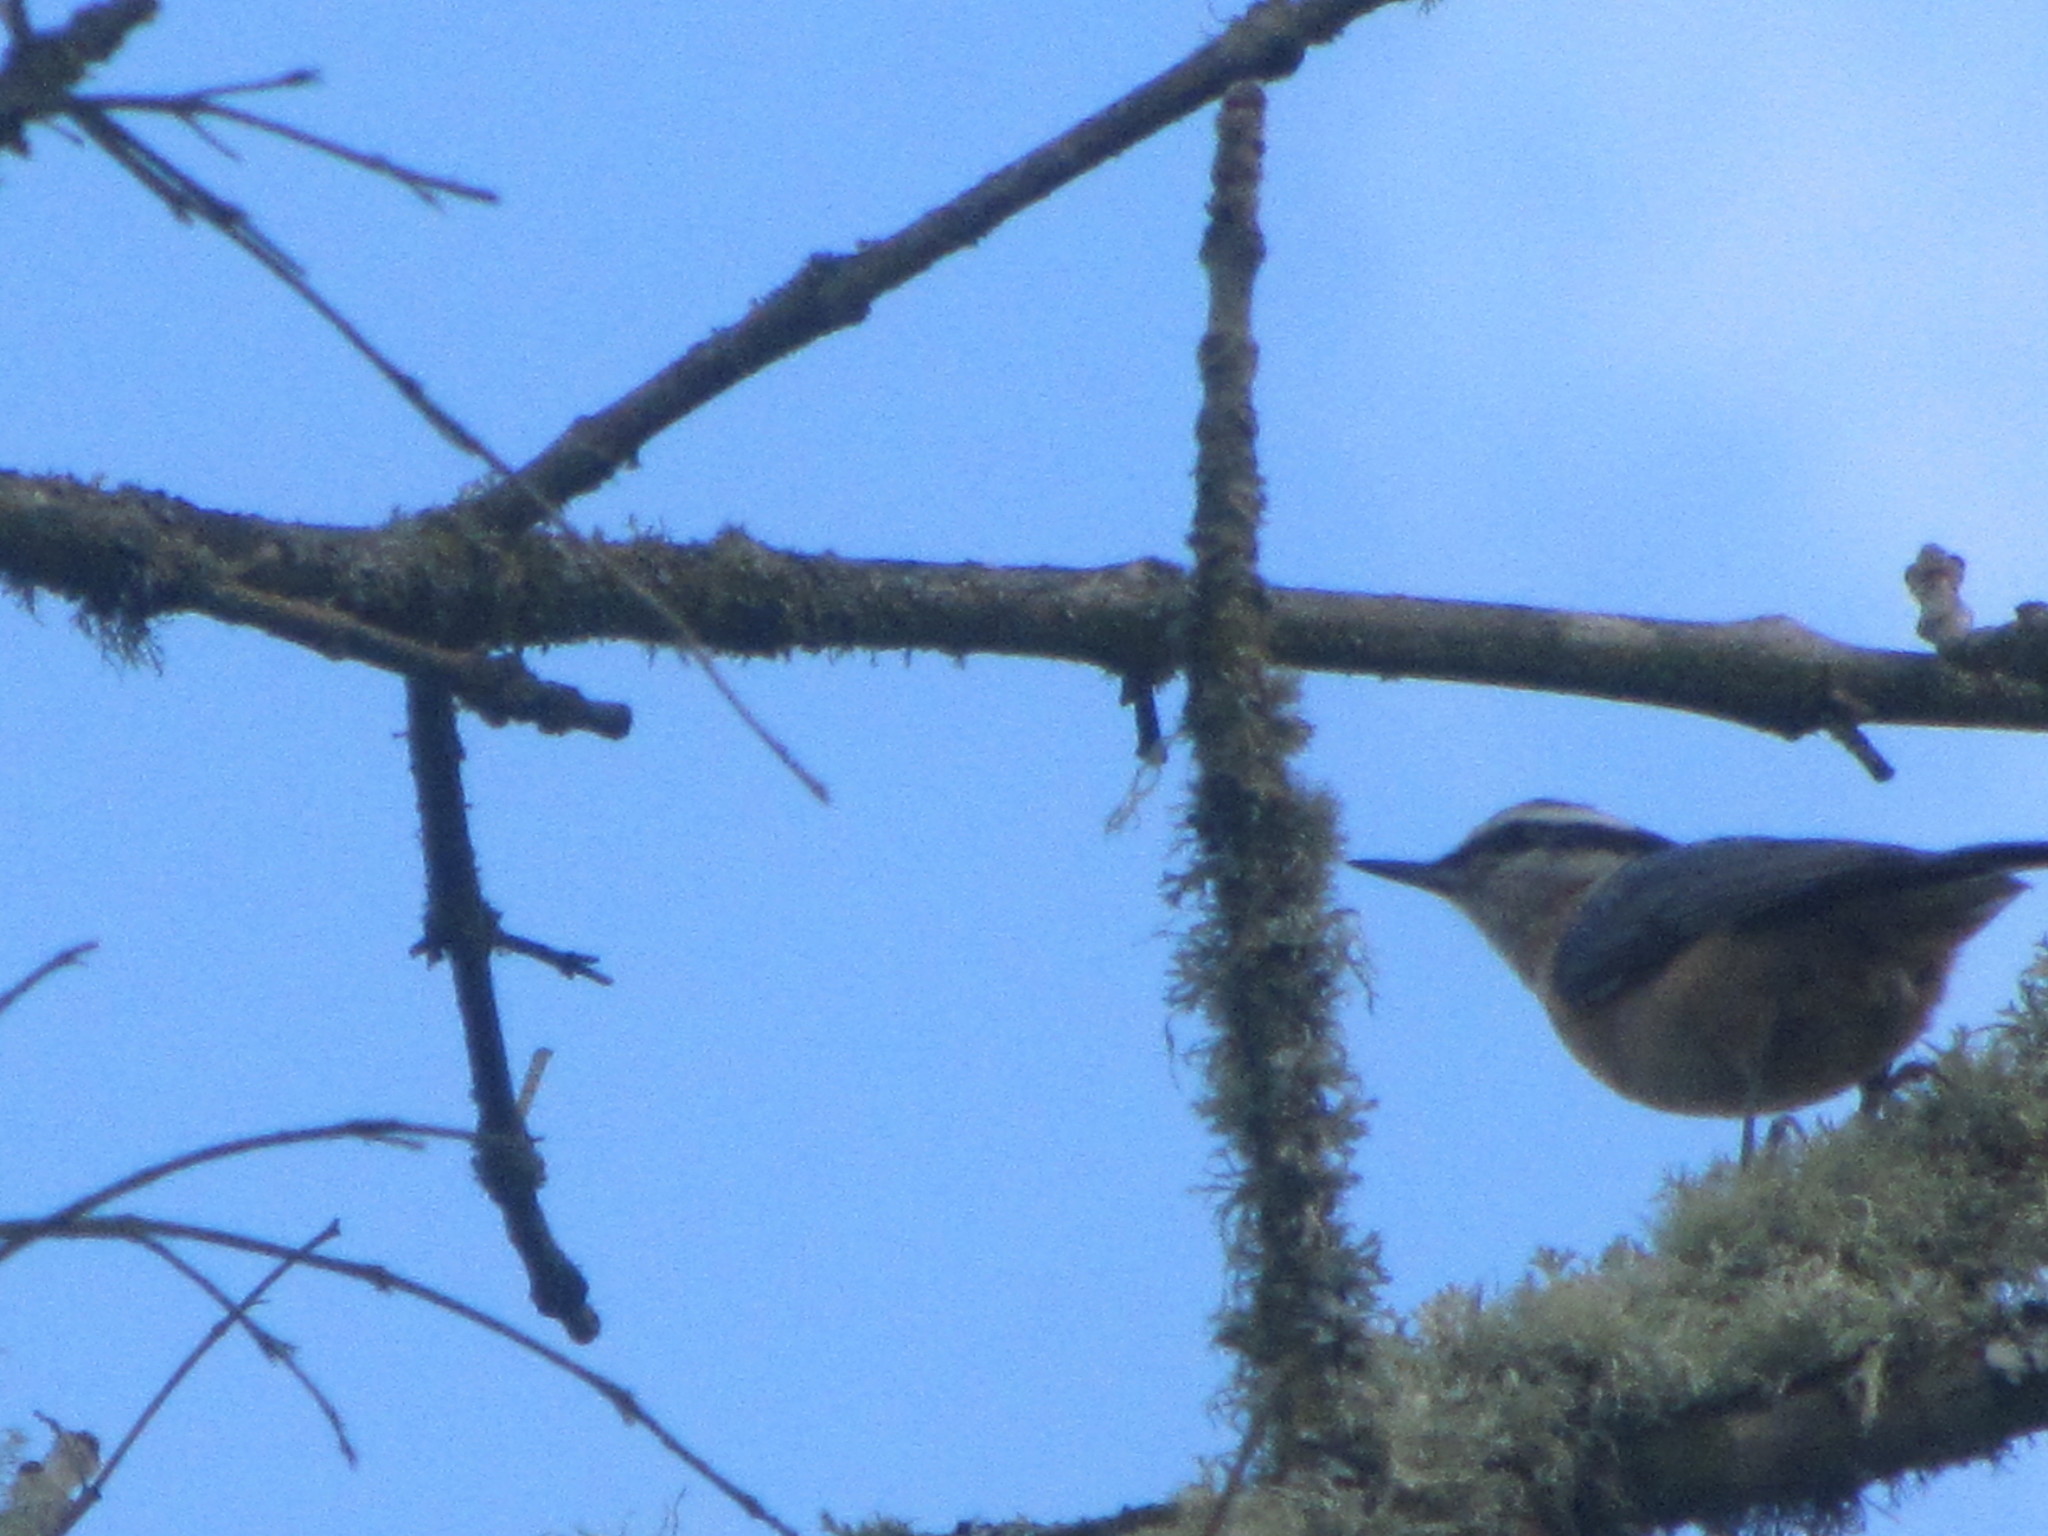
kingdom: Animalia
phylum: Chordata
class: Aves
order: Passeriformes
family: Sittidae
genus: Sitta
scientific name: Sitta canadensis
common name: Red-breasted nuthatch
